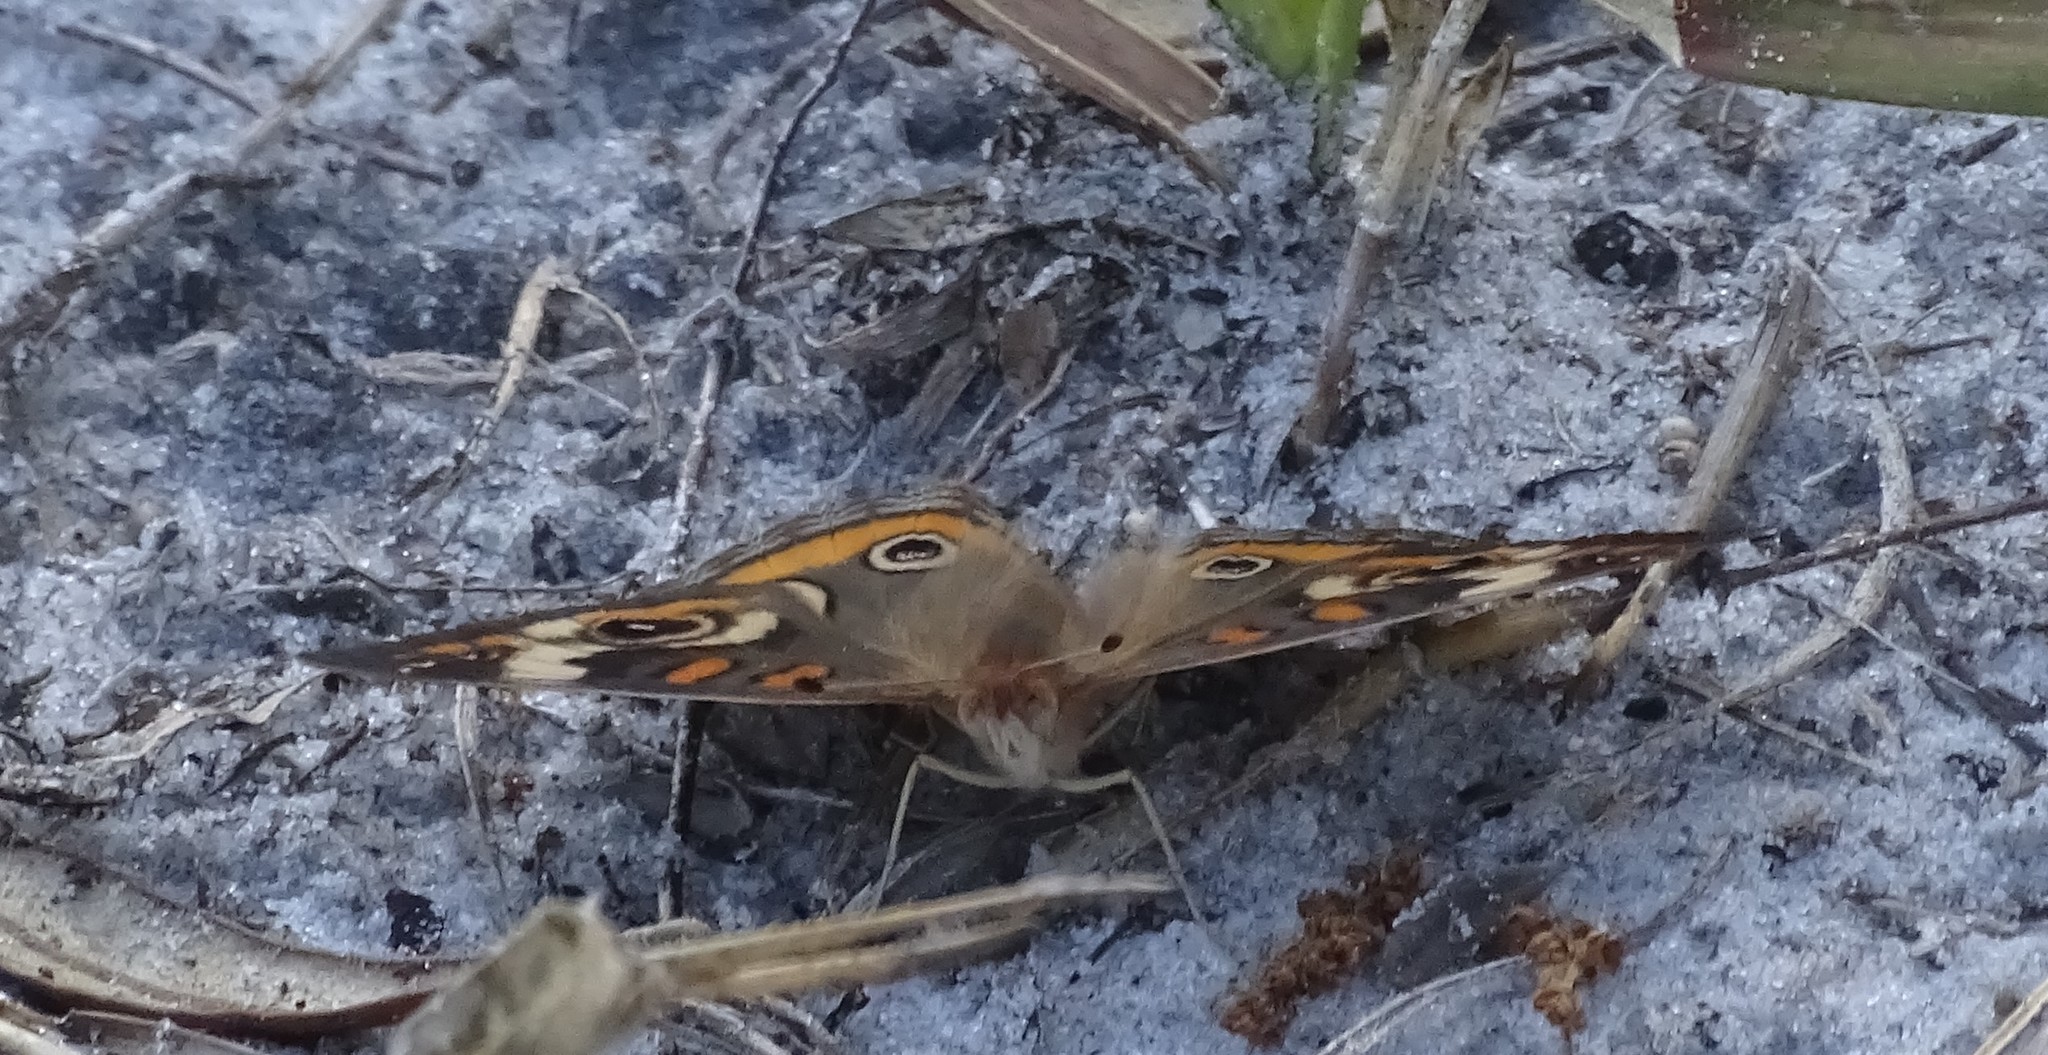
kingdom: Animalia
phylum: Arthropoda
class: Insecta
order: Lepidoptera
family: Nymphalidae
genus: Junonia
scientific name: Junonia coenia
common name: Common buckeye
